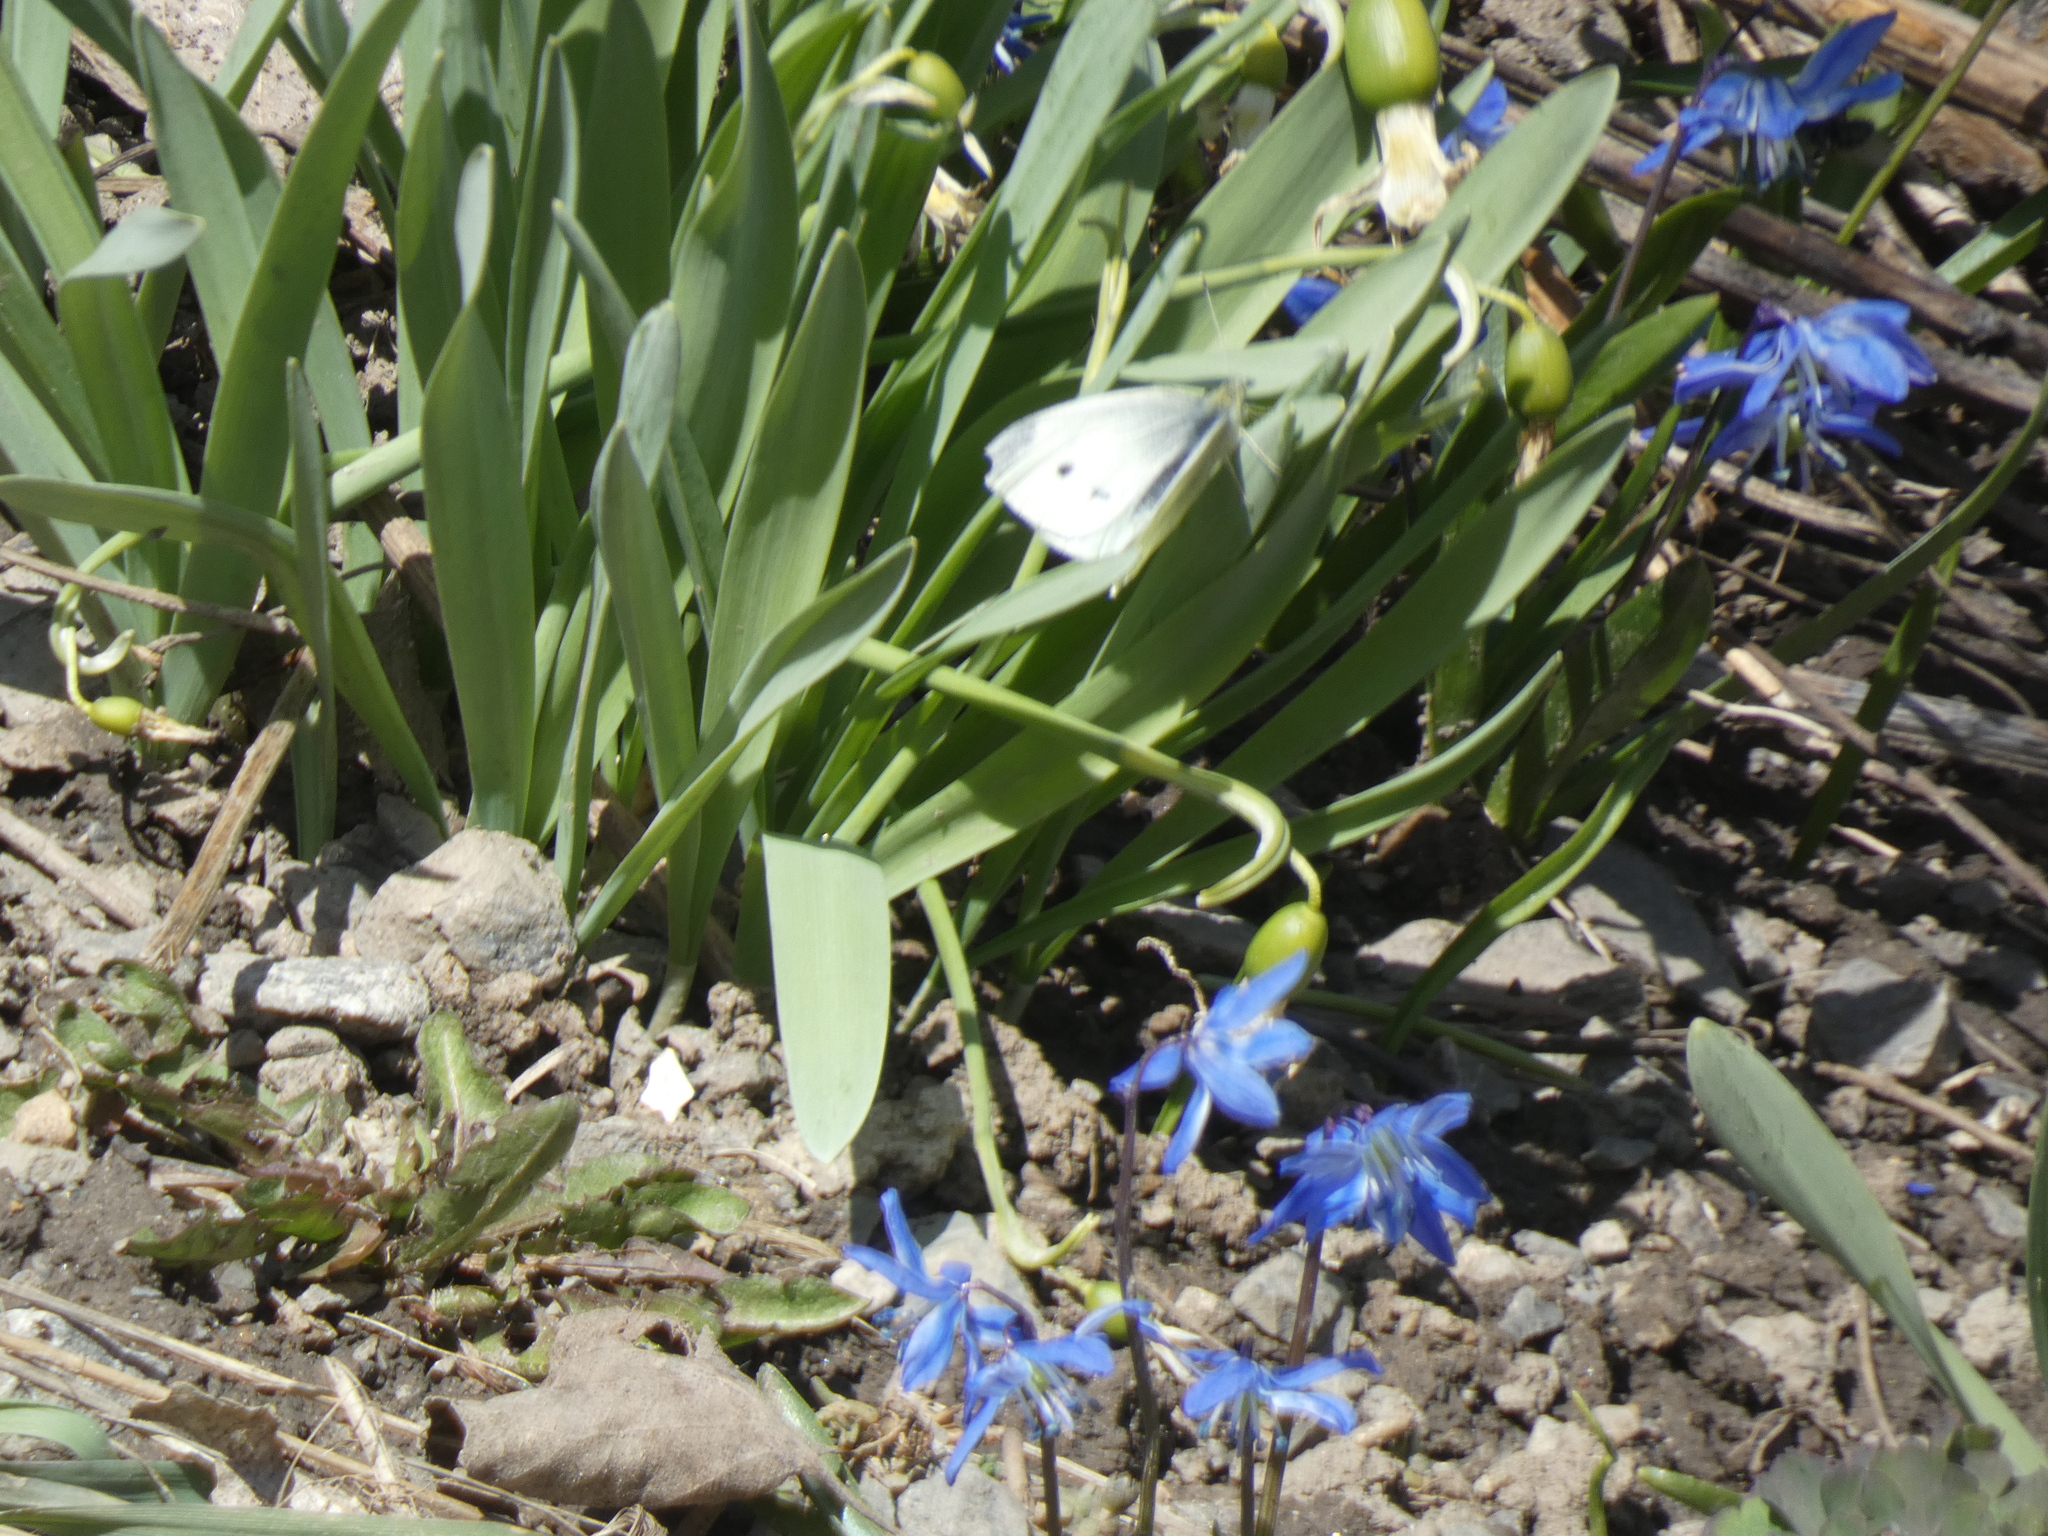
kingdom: Animalia
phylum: Arthropoda
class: Insecta
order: Lepidoptera
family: Pieridae
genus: Pieris
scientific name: Pieris rapae
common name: Small white
